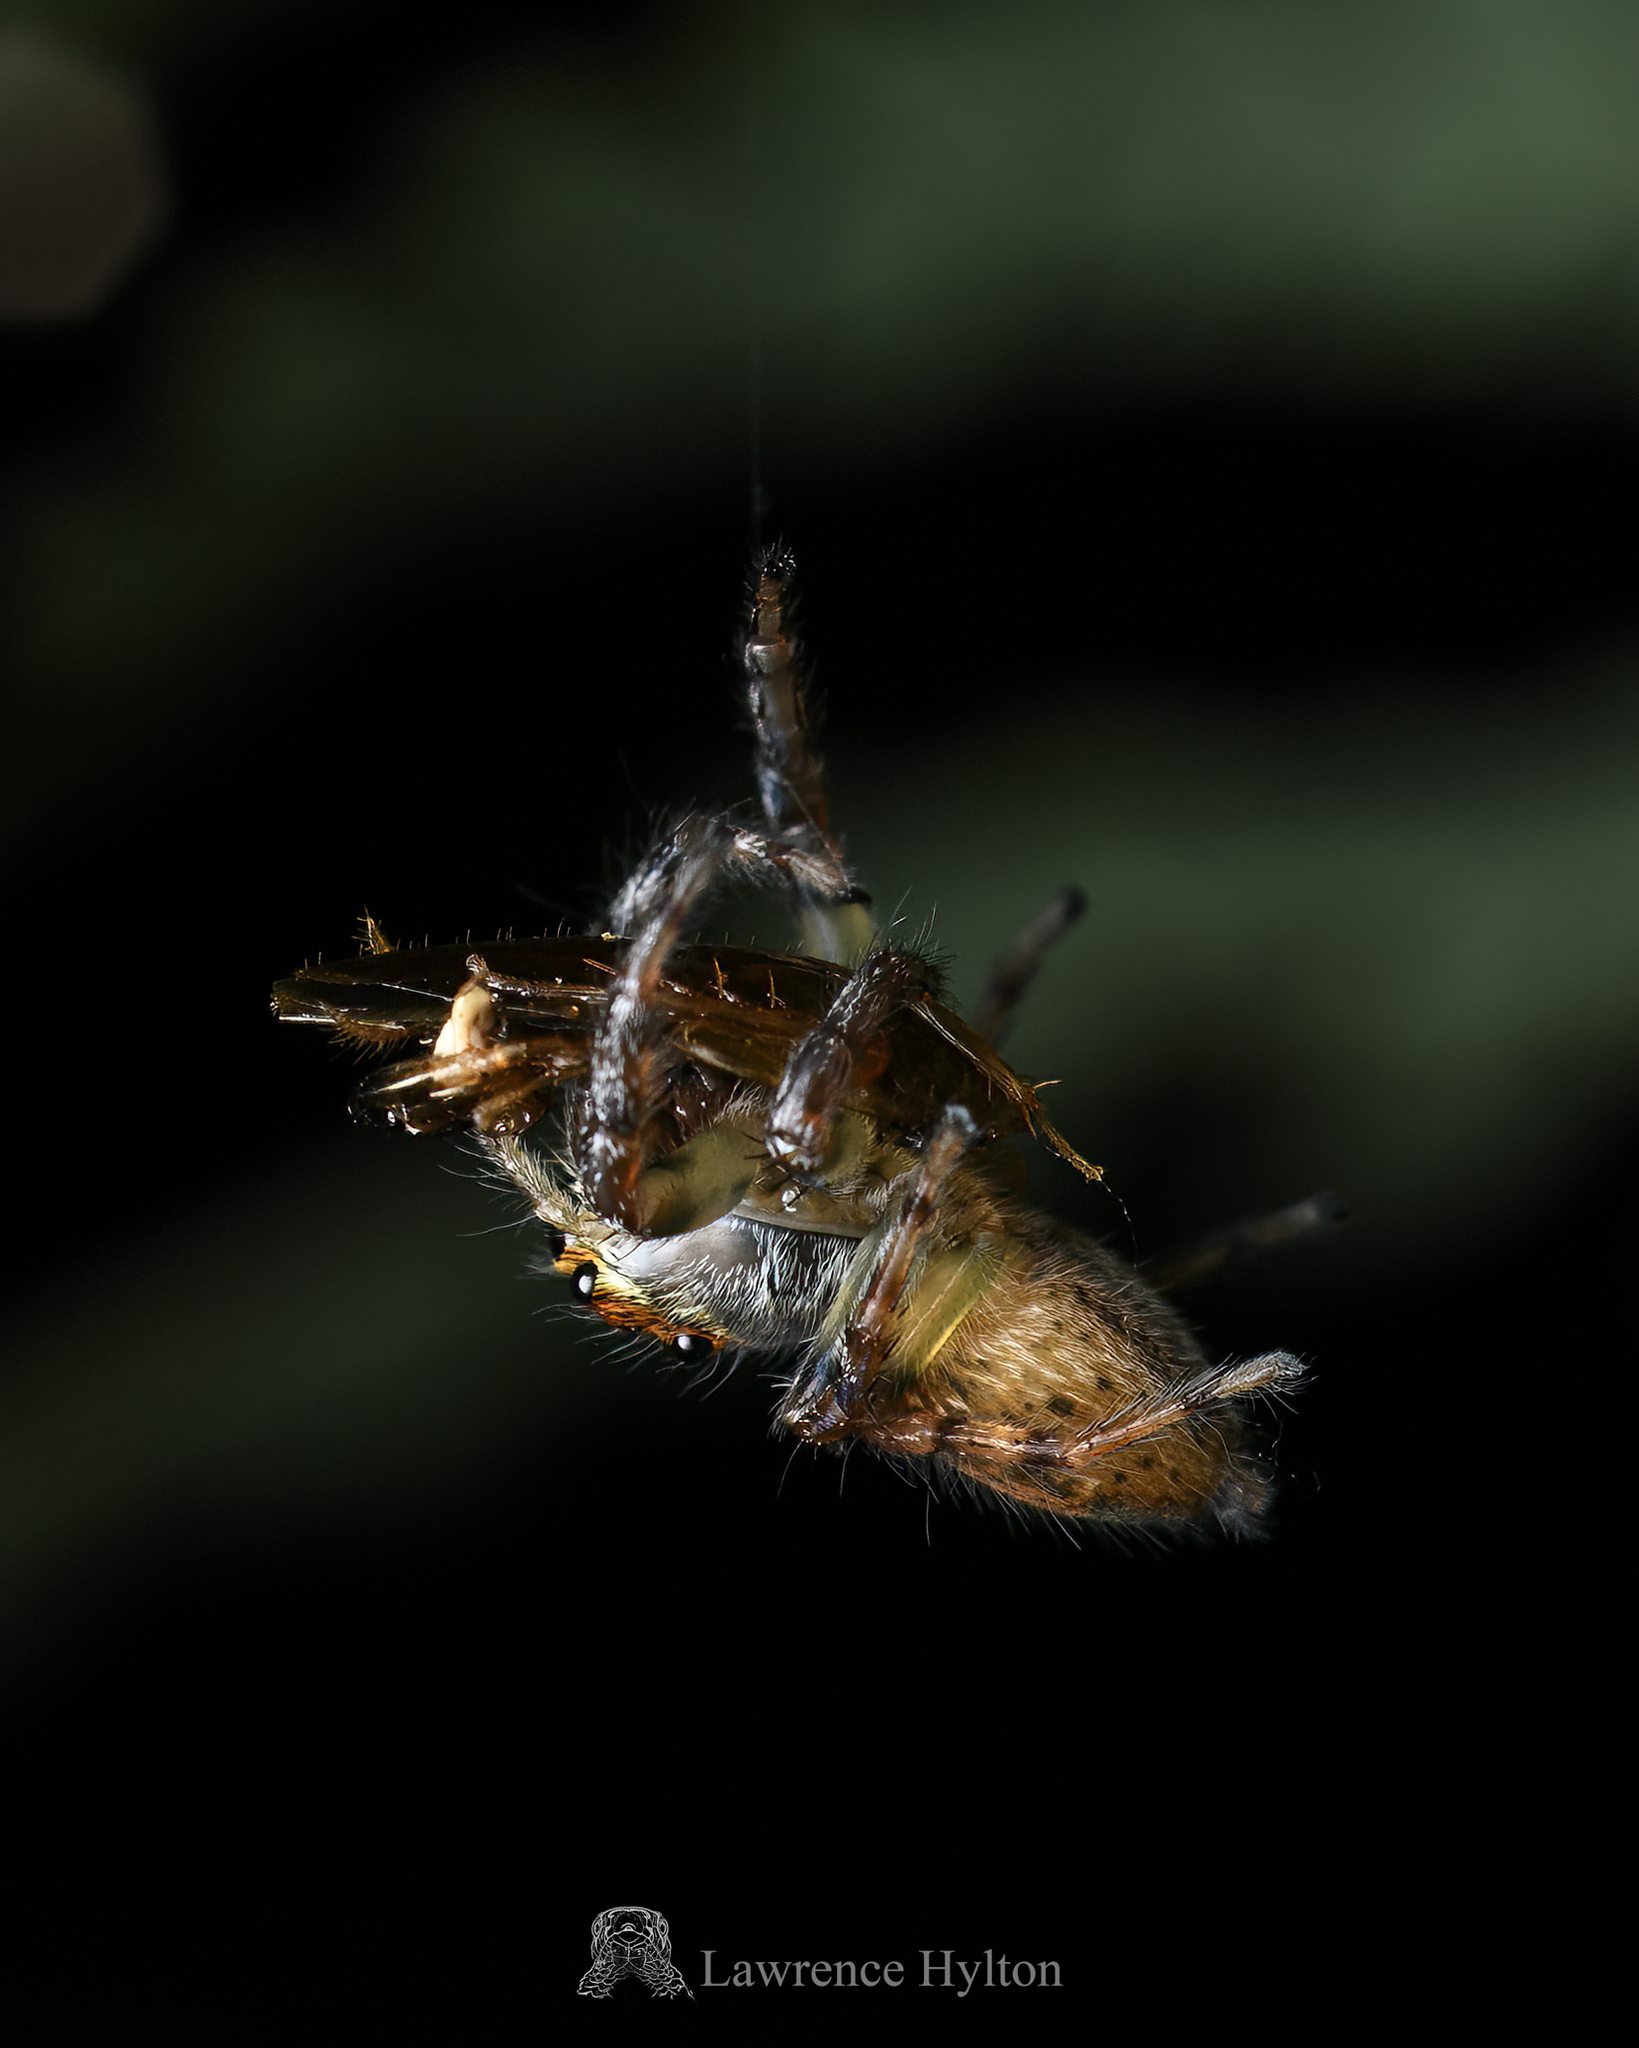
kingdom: Animalia
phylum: Arthropoda
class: Arachnida
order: Araneae
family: Salticidae
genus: Thyene
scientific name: Thyene orientalis
